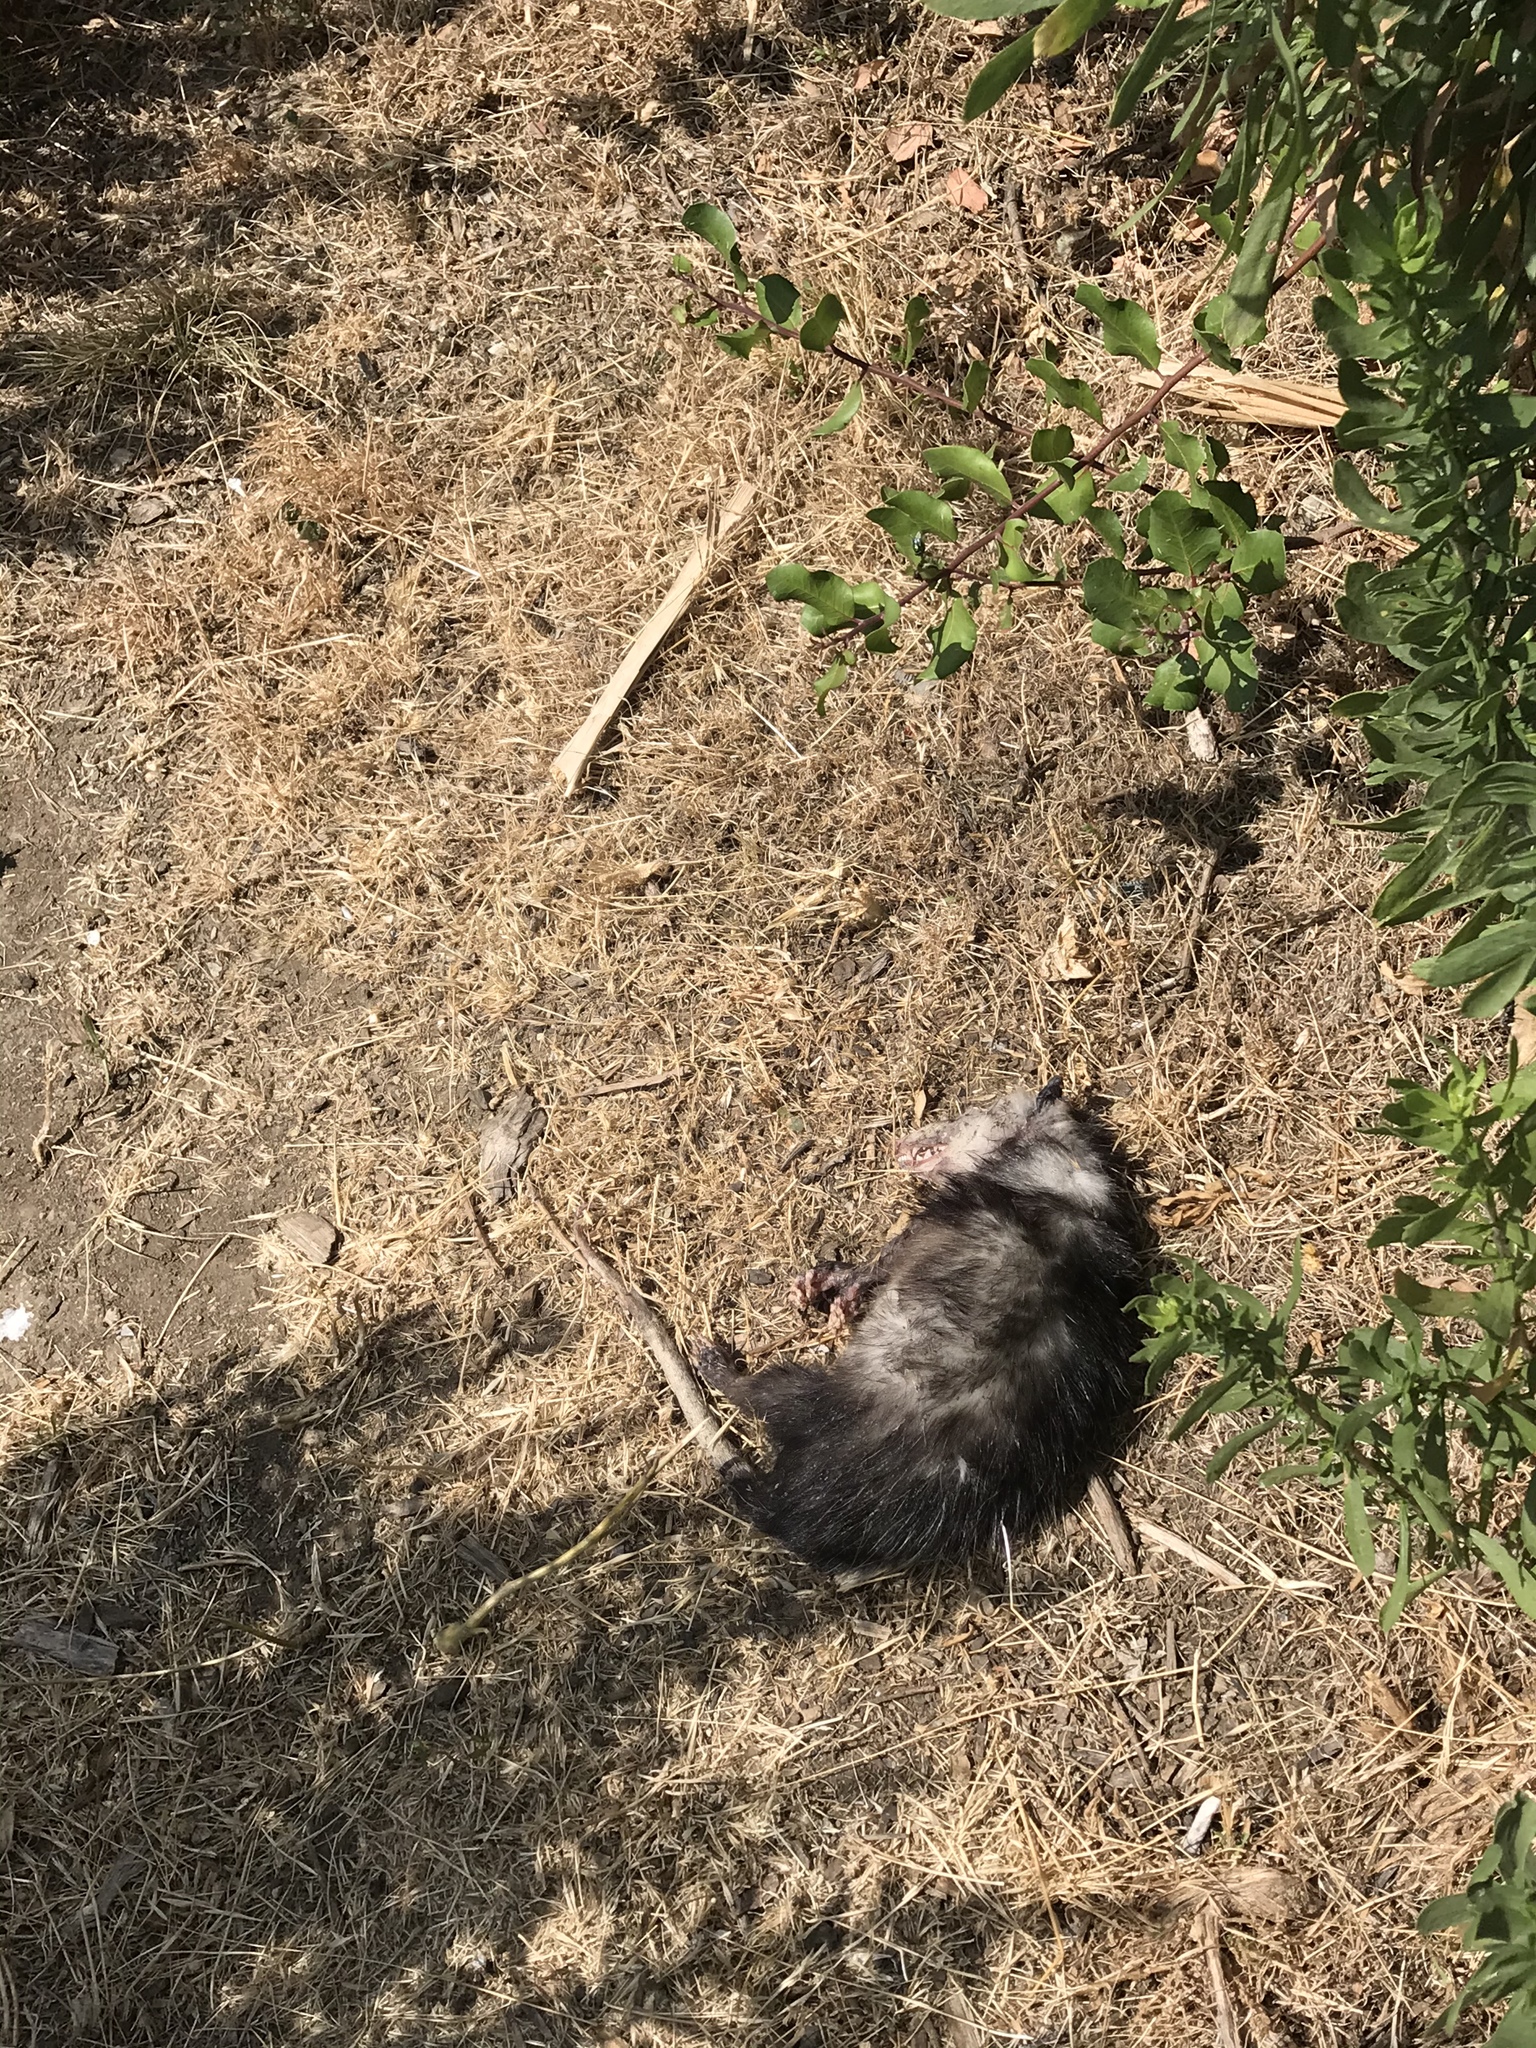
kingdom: Animalia
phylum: Chordata
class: Mammalia
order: Didelphimorphia
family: Didelphidae
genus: Didelphis
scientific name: Didelphis virginiana
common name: Virginia opossum
